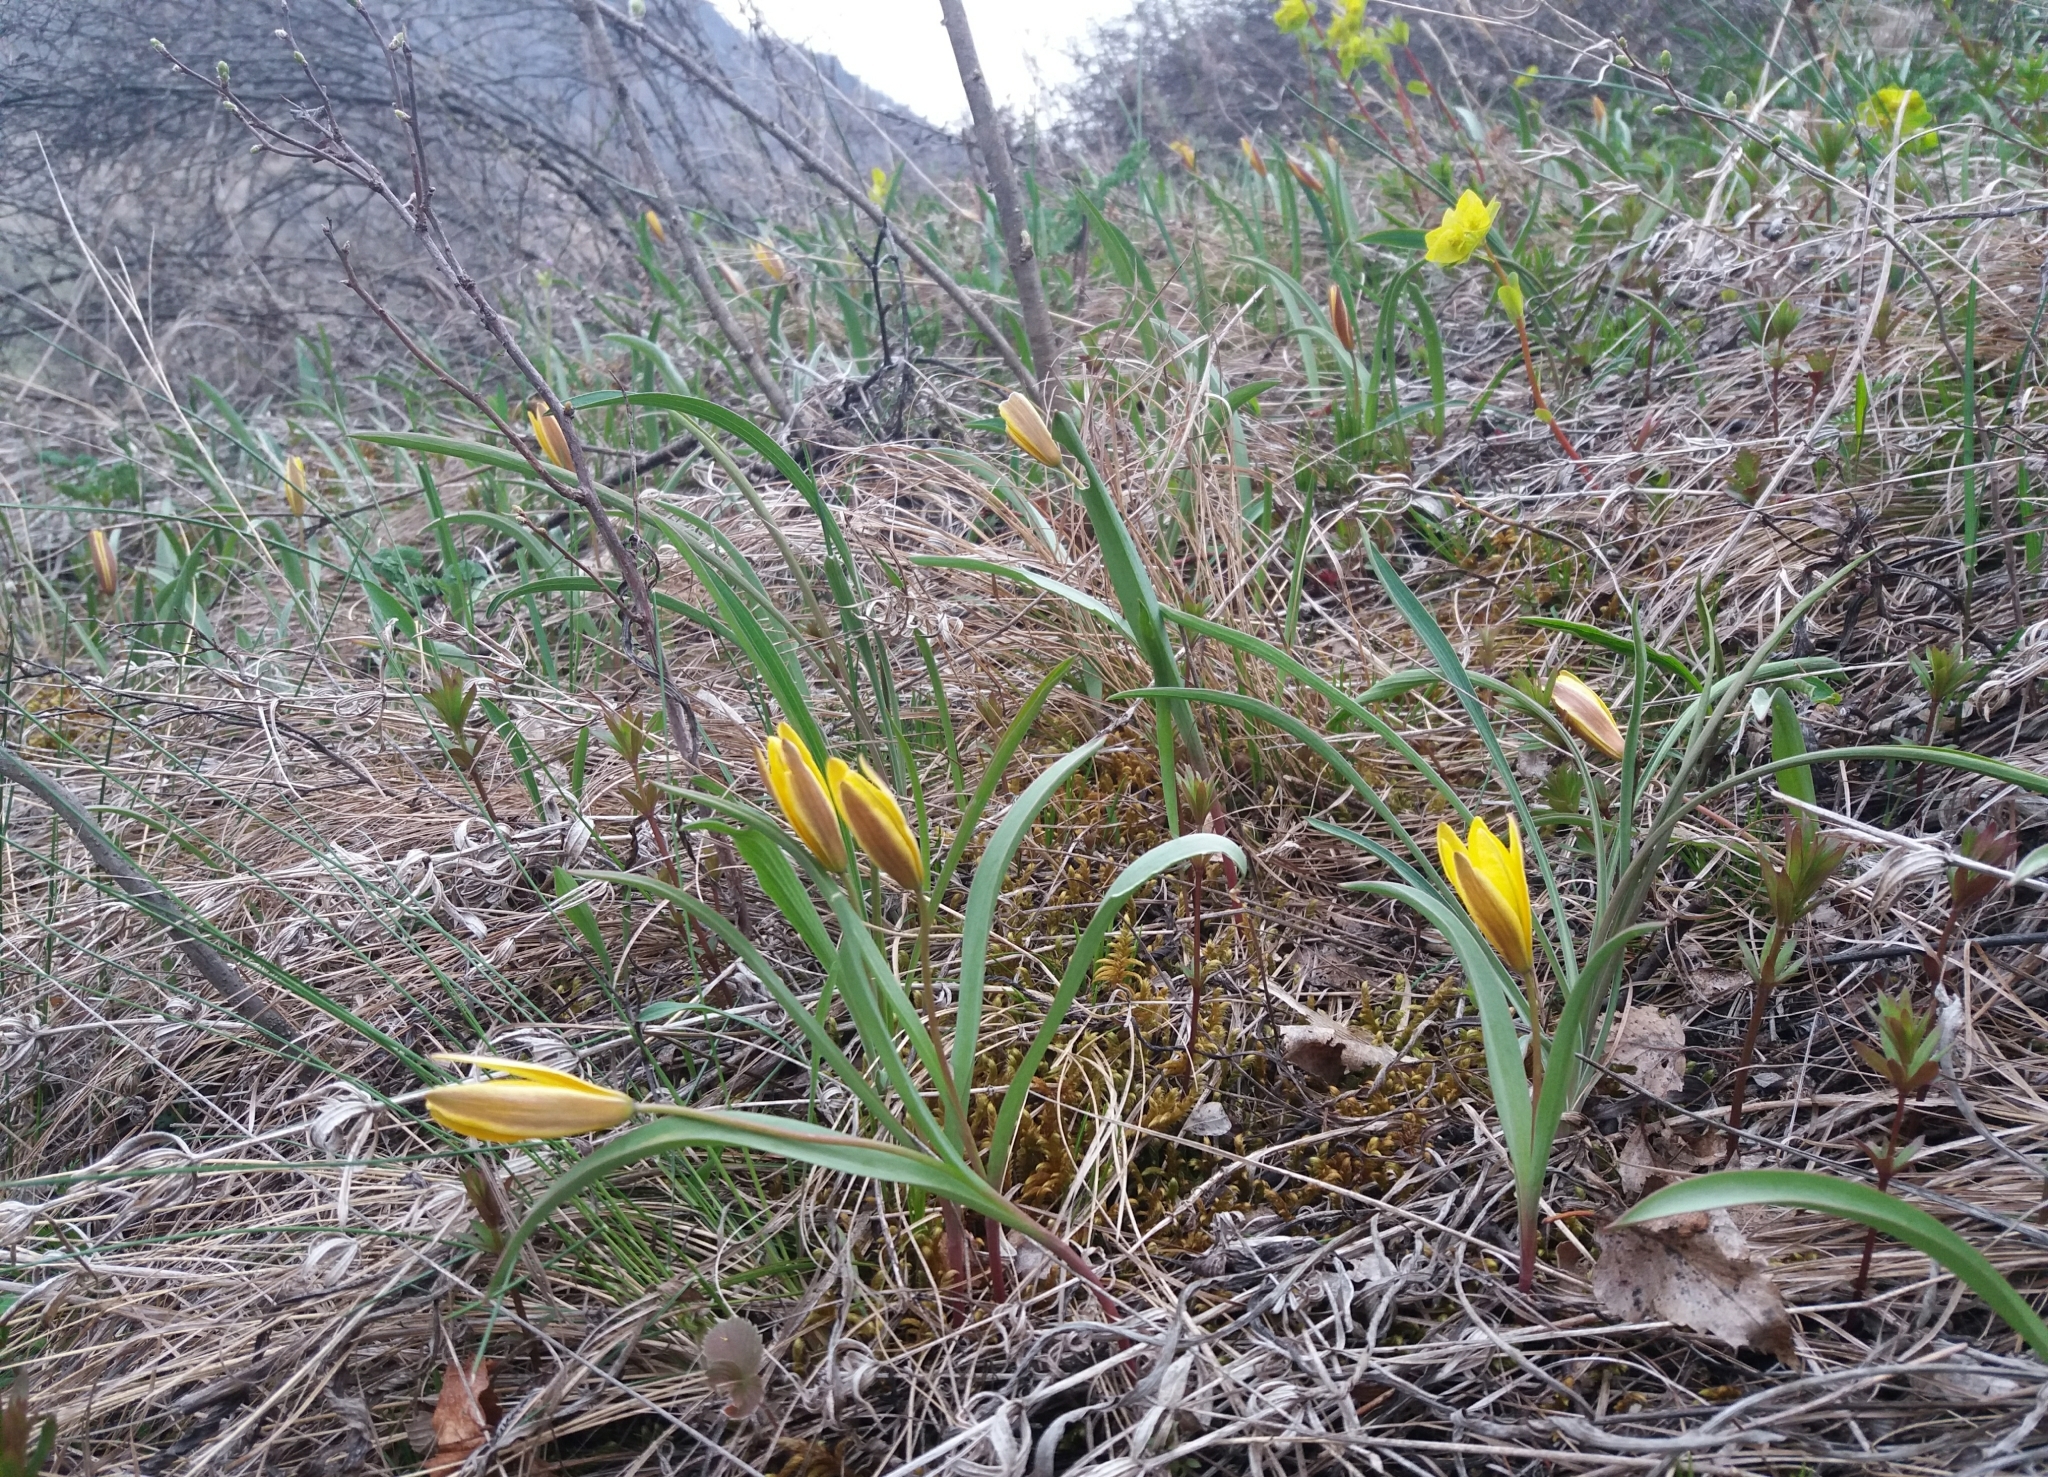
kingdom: Plantae
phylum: Tracheophyta
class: Liliopsida
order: Liliales
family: Liliaceae
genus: Tulipa
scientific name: Tulipa uniflora
